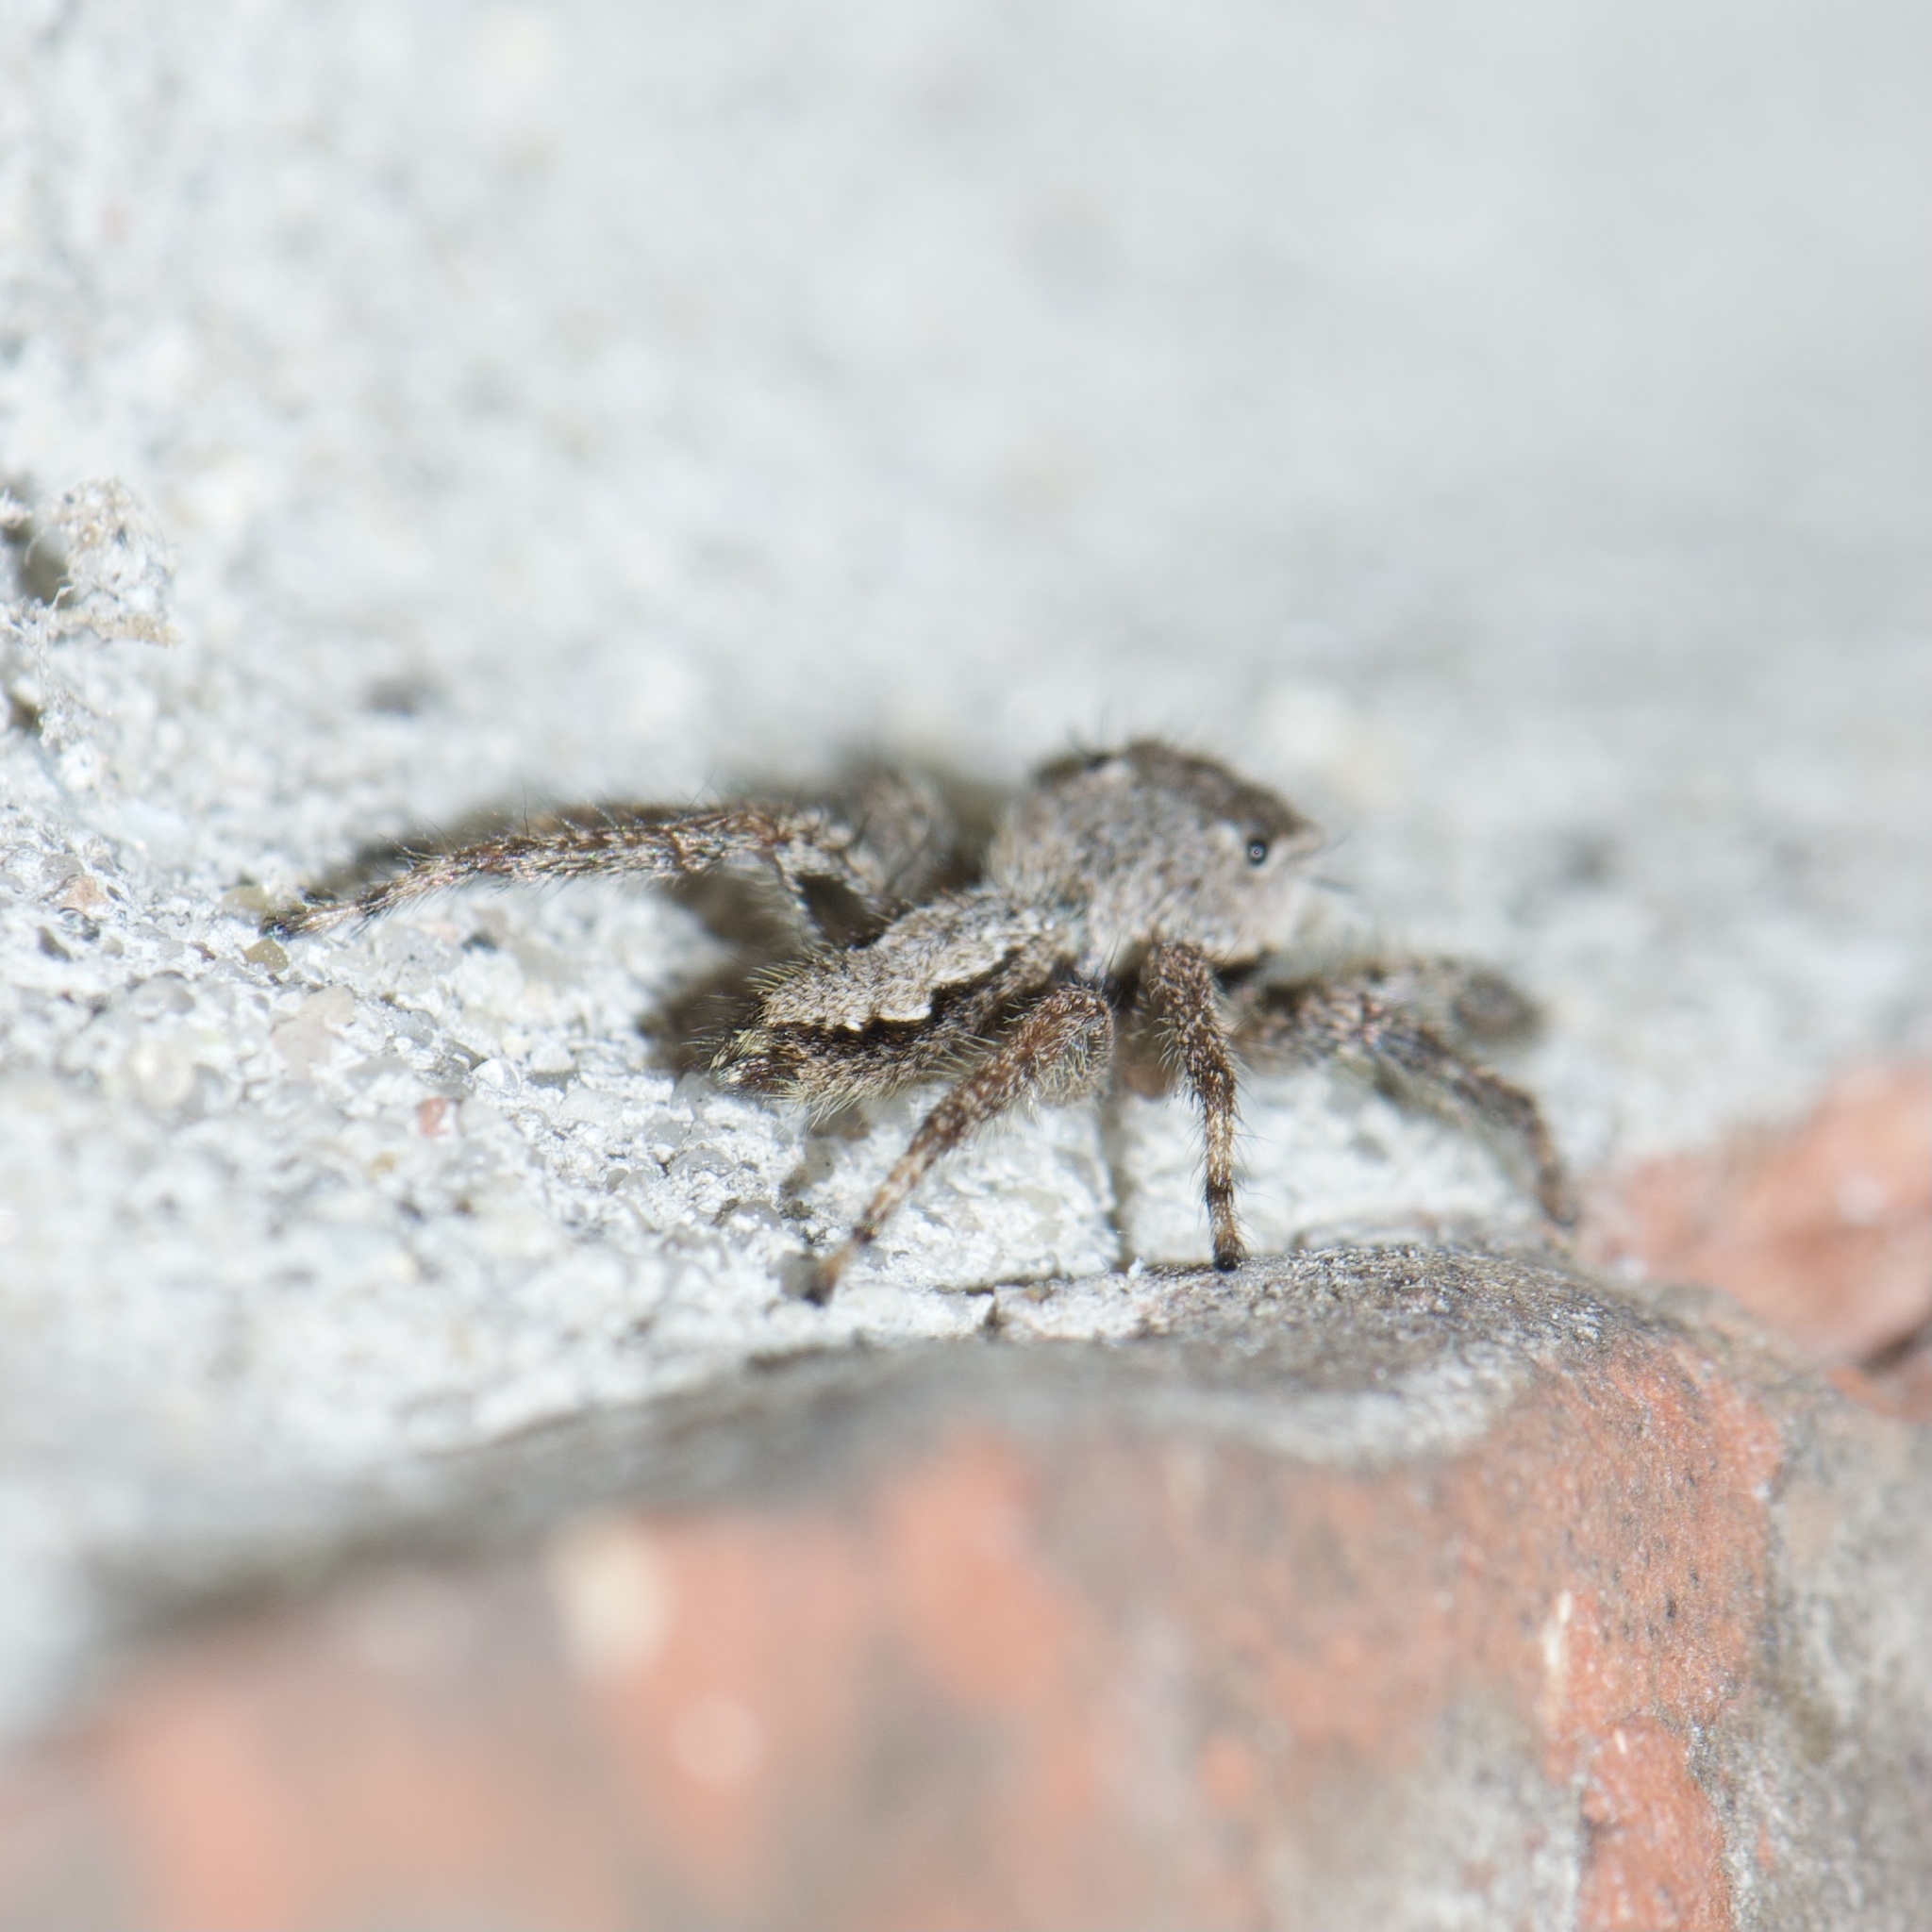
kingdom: Animalia
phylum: Arthropoda
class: Arachnida
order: Araneae
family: Salticidae
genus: Platycryptus
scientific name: Platycryptus undatus
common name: Tan jumping spider
